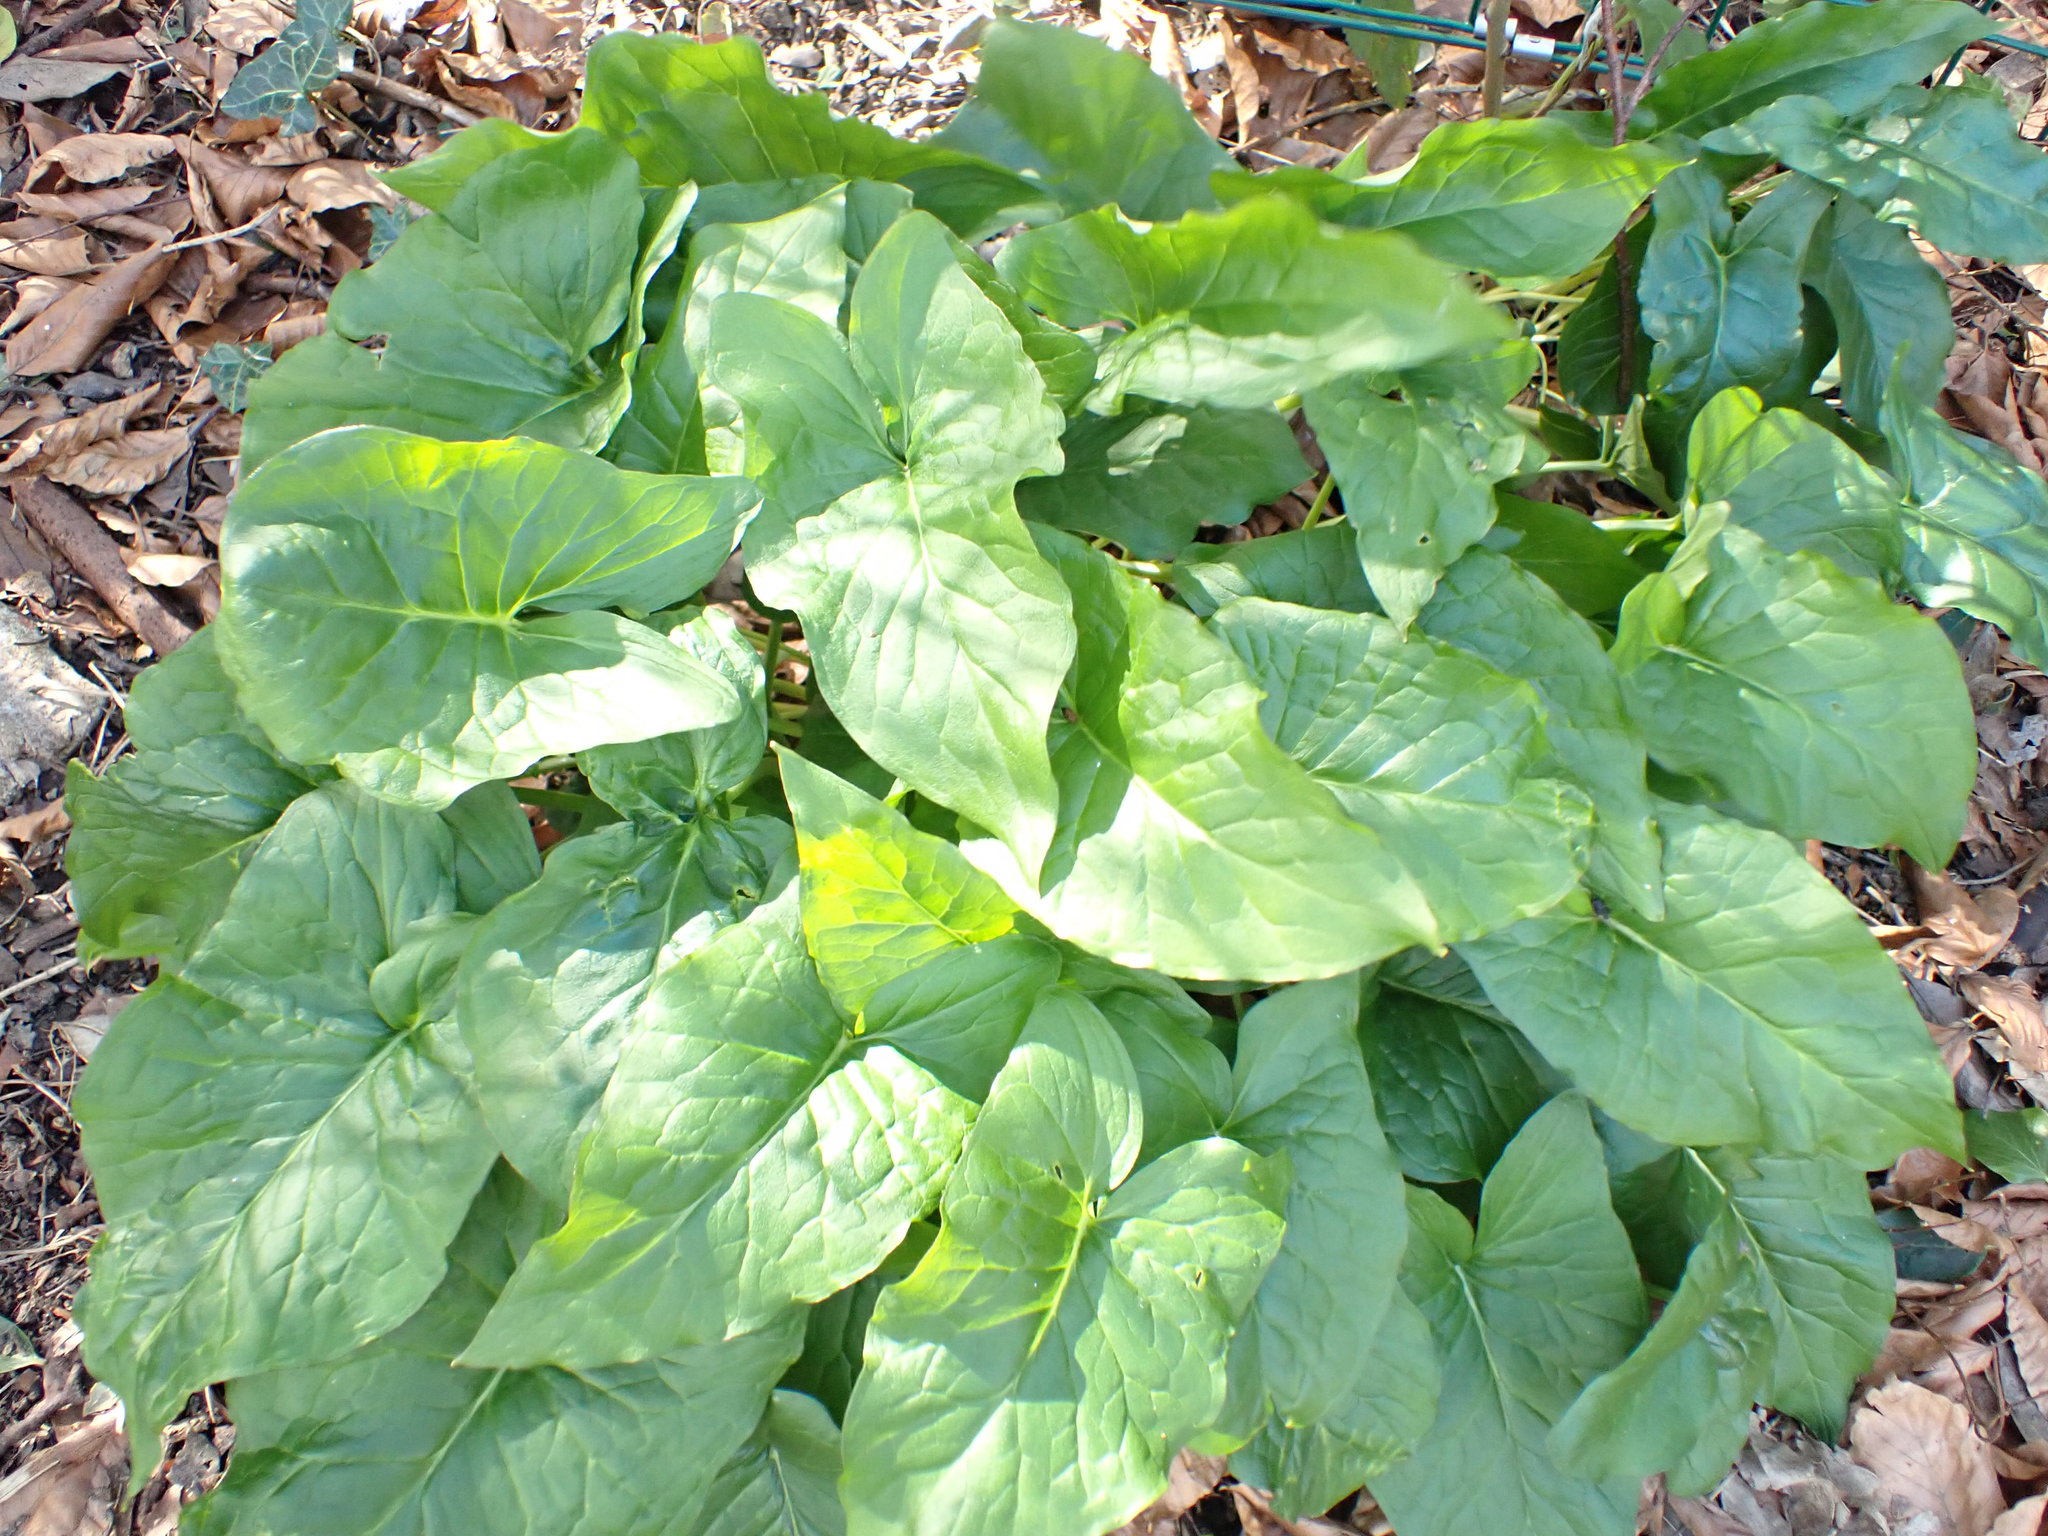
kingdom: Plantae
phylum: Tracheophyta
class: Liliopsida
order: Alismatales
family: Araceae
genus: Arum
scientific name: Arum maculatum
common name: Lords-and-ladies
